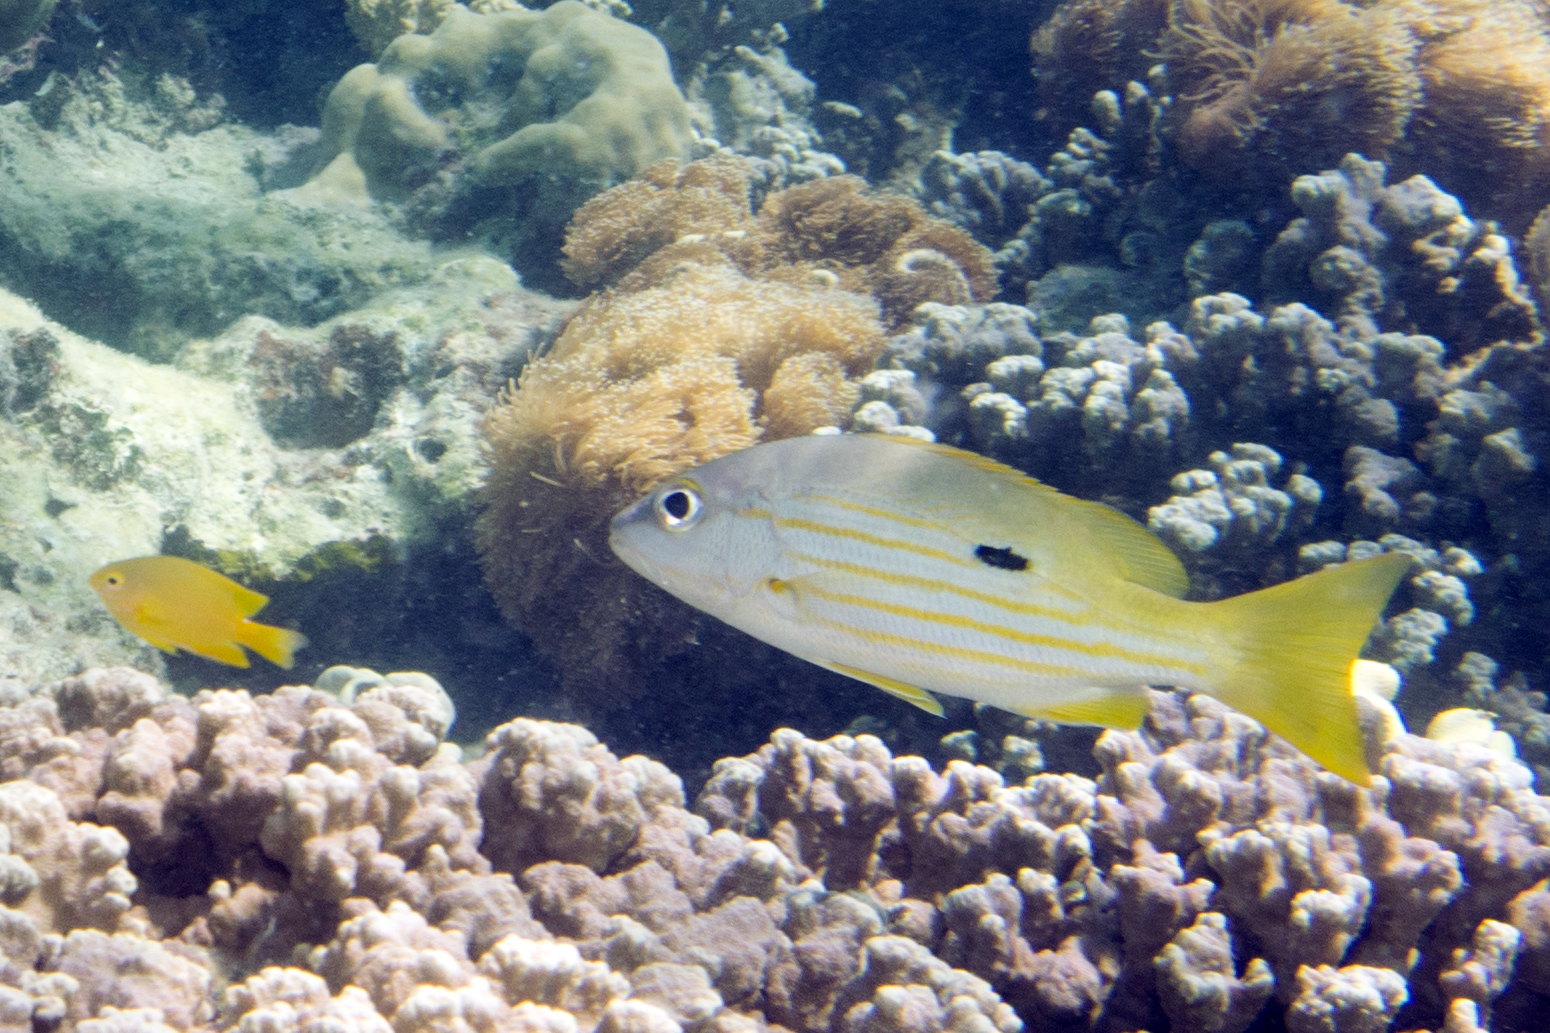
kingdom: Animalia
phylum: Chordata
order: Perciformes
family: Lutjanidae
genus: Lutjanus
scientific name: Lutjanus fulviflamma
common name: Blackspot snapper
